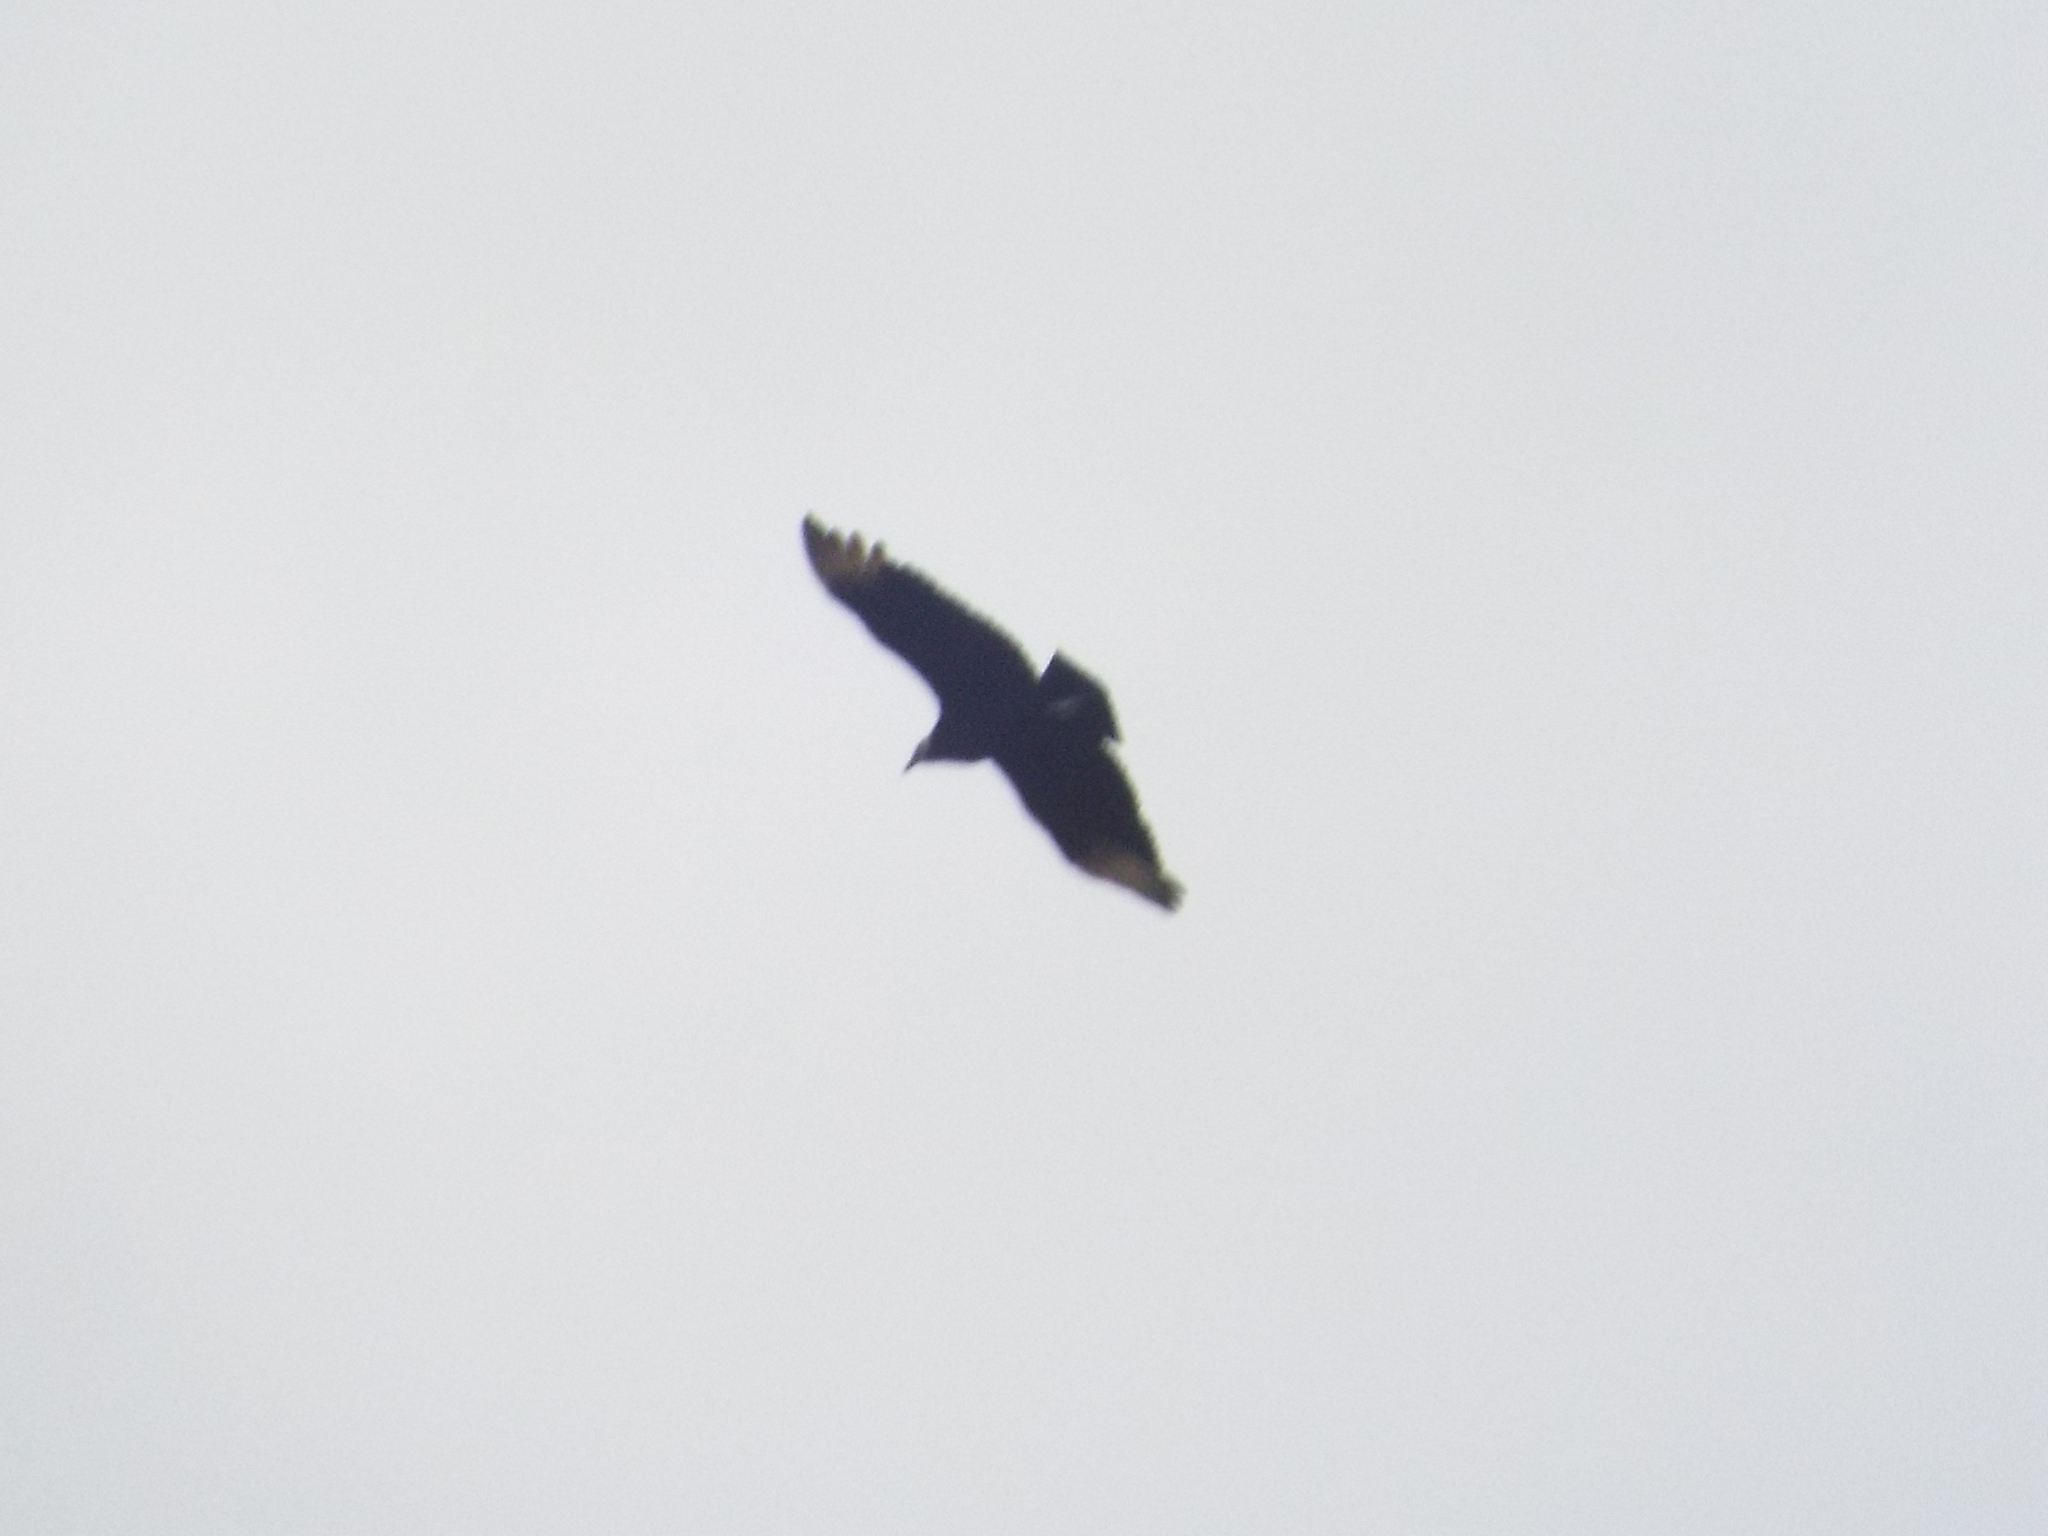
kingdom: Animalia
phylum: Chordata
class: Aves
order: Accipitriformes
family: Cathartidae
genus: Coragyps
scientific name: Coragyps atratus
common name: Black vulture
